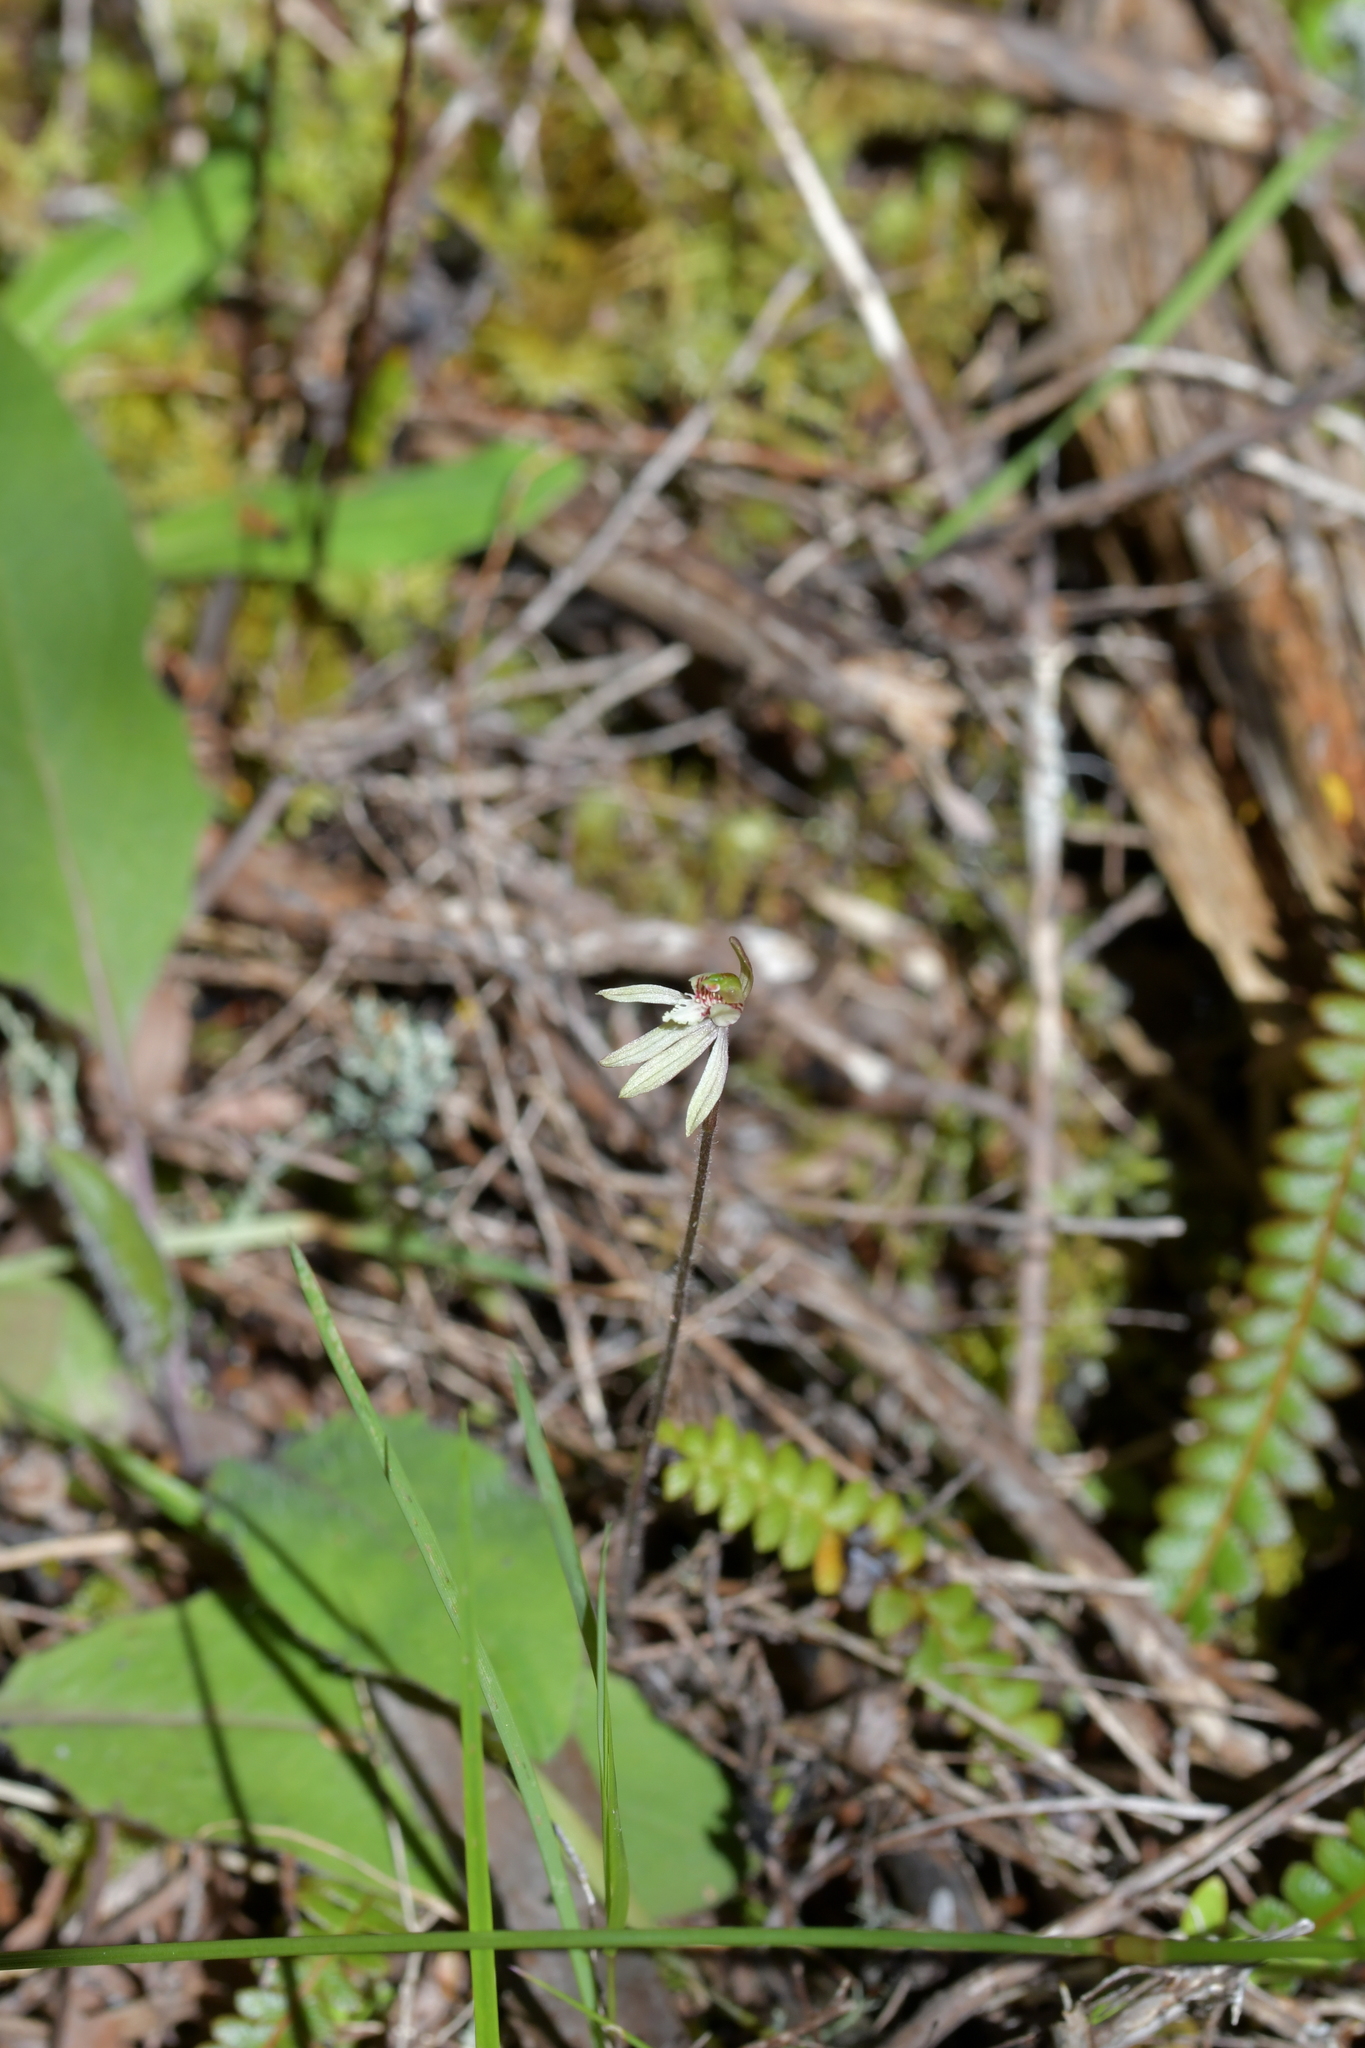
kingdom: Plantae
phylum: Tracheophyta
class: Liliopsida
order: Asparagales
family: Orchidaceae
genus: Caladenia
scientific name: Caladenia chlorostyla
